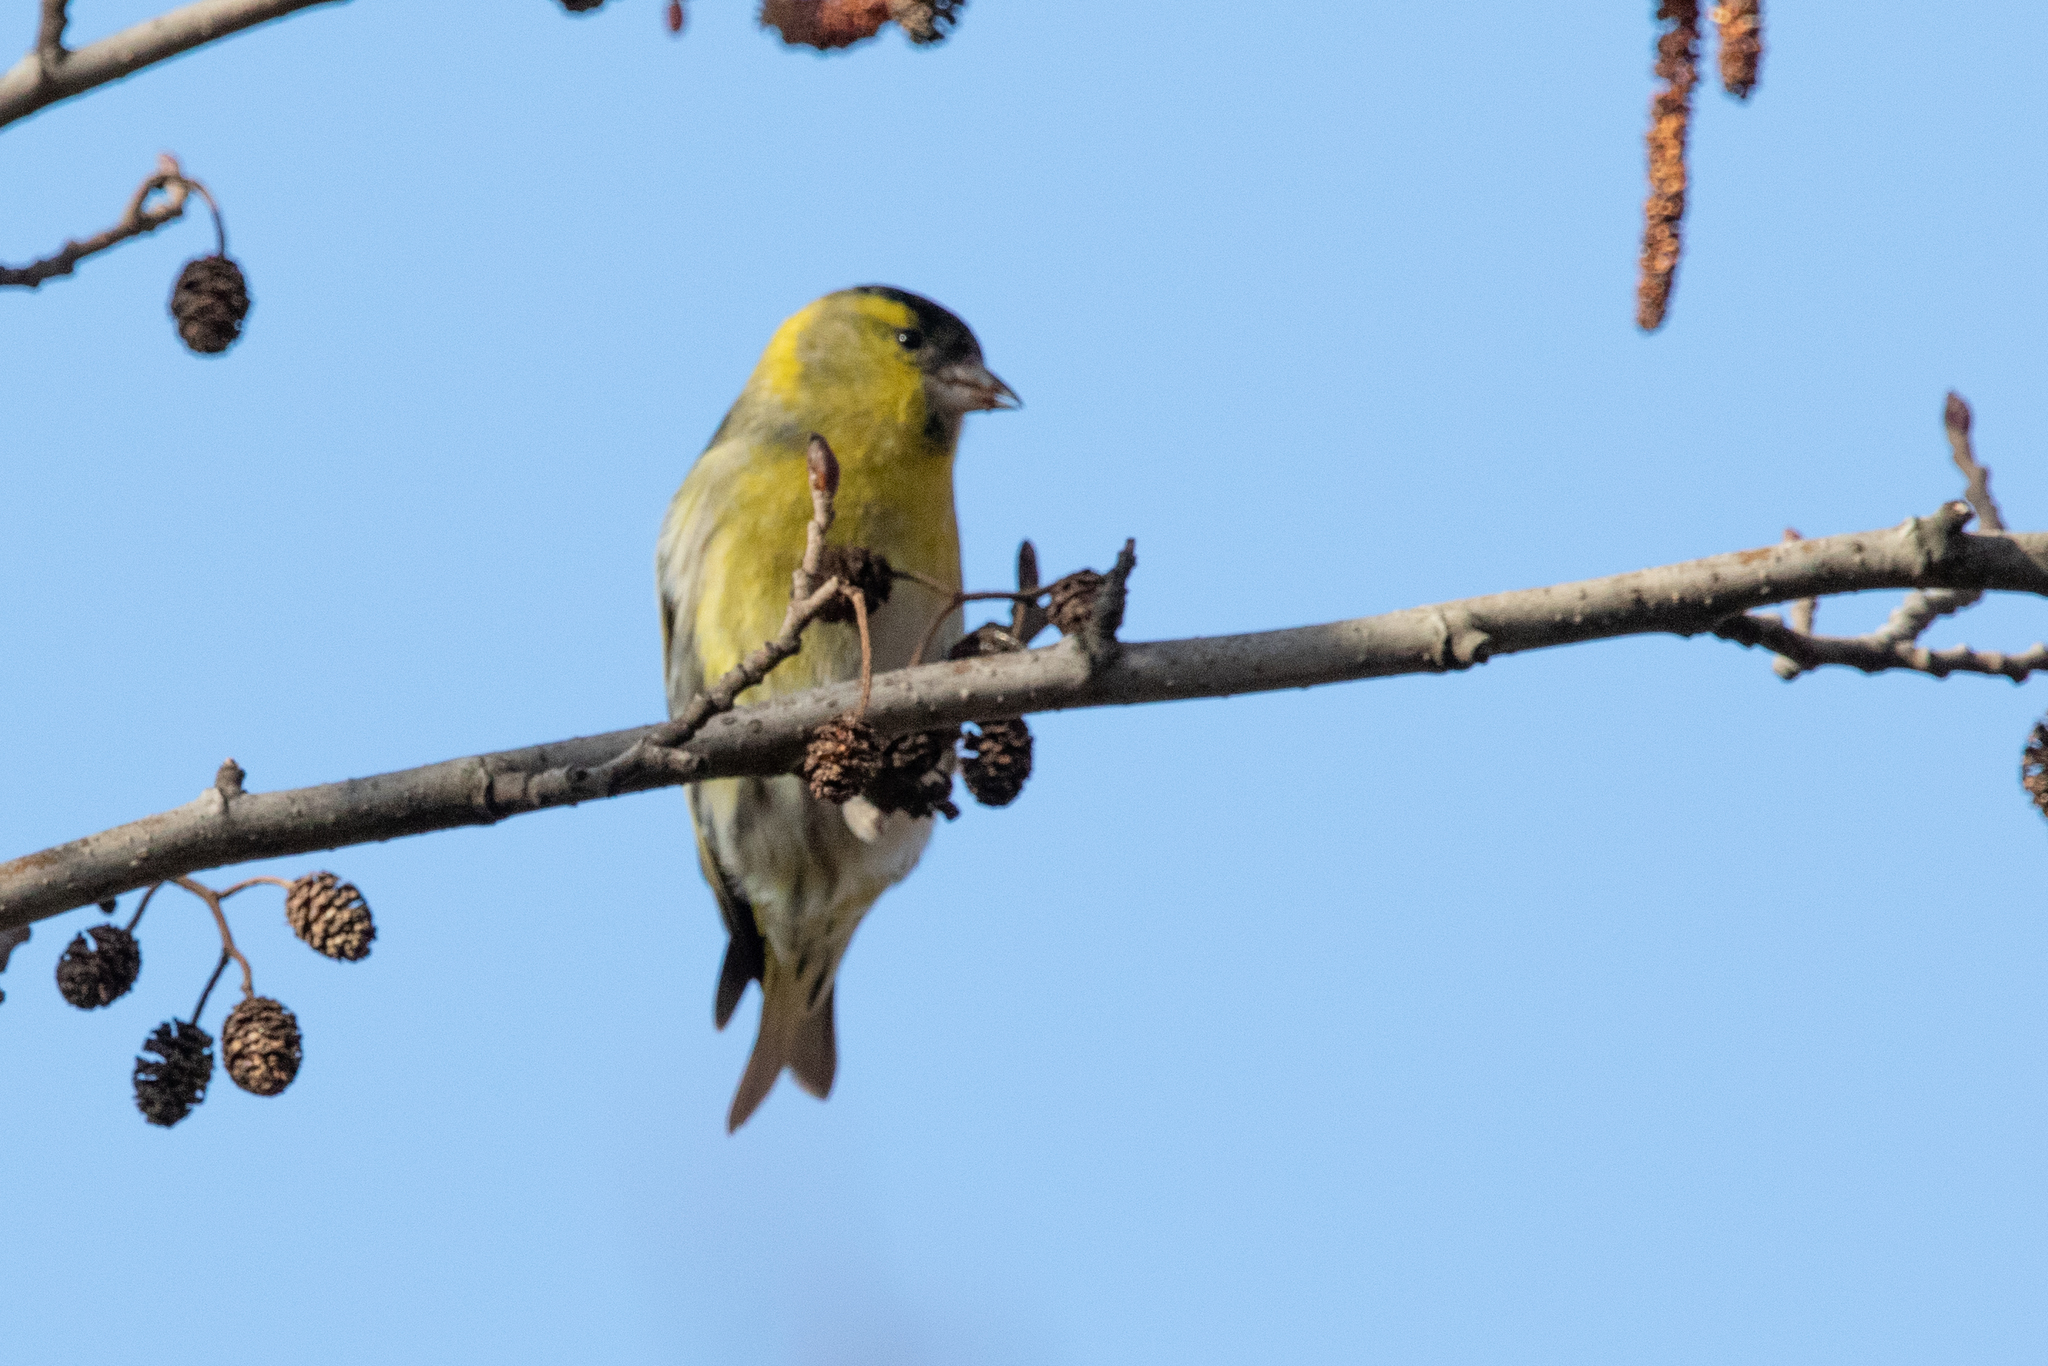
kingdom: Animalia
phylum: Chordata
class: Aves
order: Passeriformes
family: Fringillidae
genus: Spinus
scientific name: Spinus spinus
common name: Eurasian siskin
